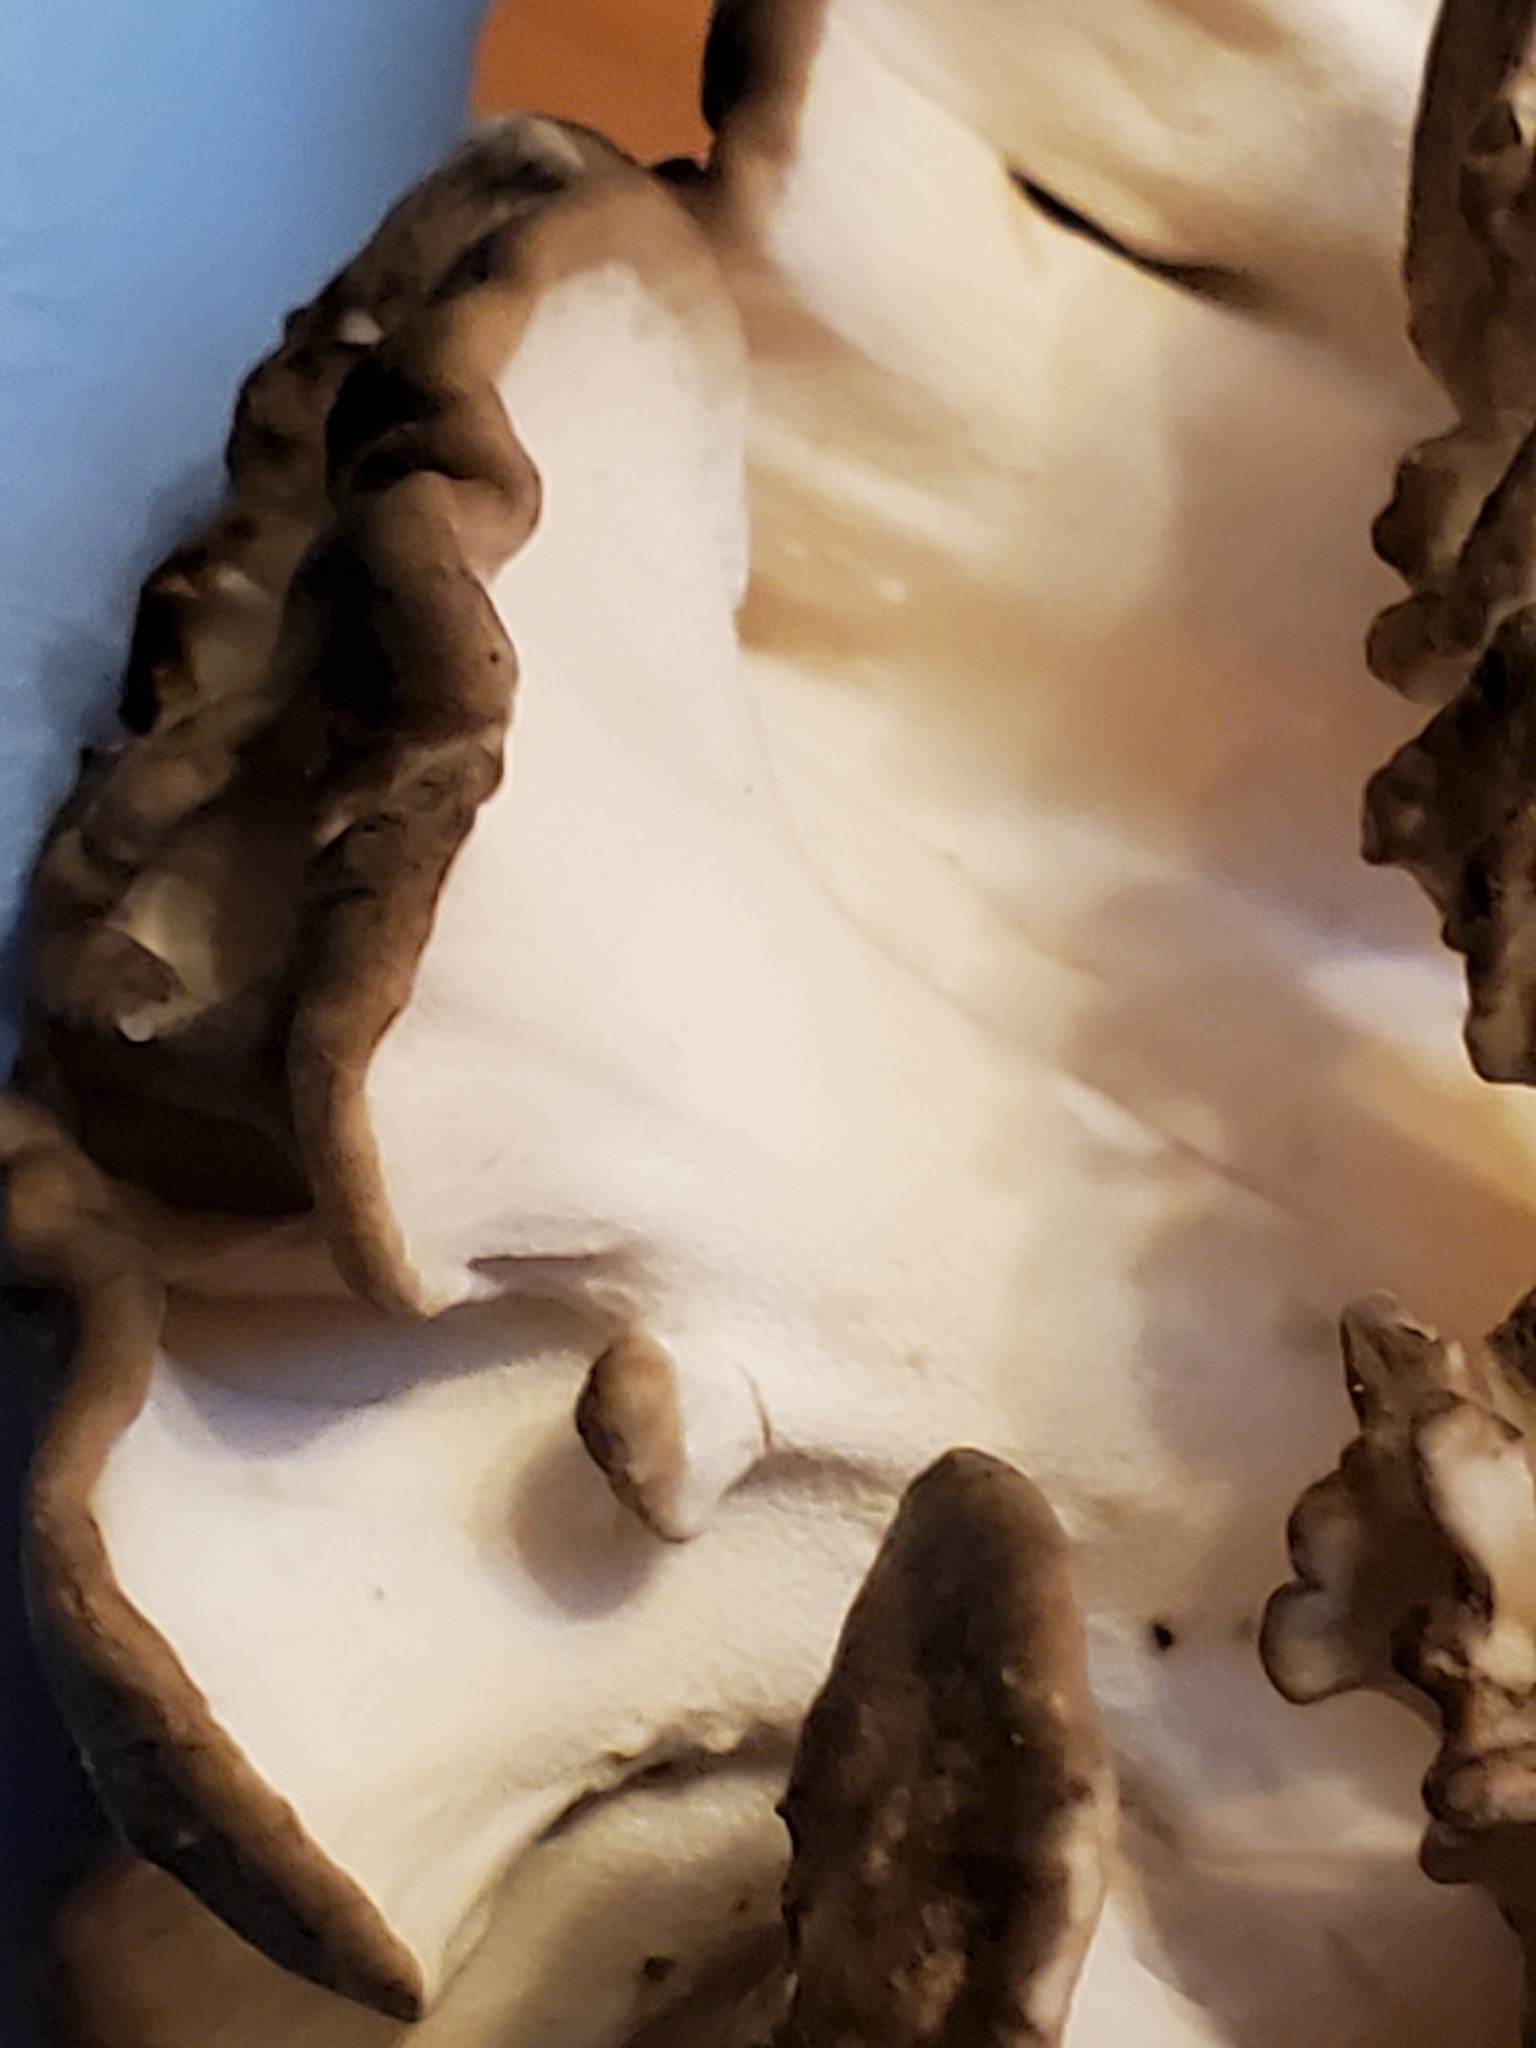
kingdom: Fungi
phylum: Basidiomycota
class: Agaricomycetes
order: Polyporales
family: Grifolaceae
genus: Grifola
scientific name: Grifola frondosa
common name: Hen of the woods
